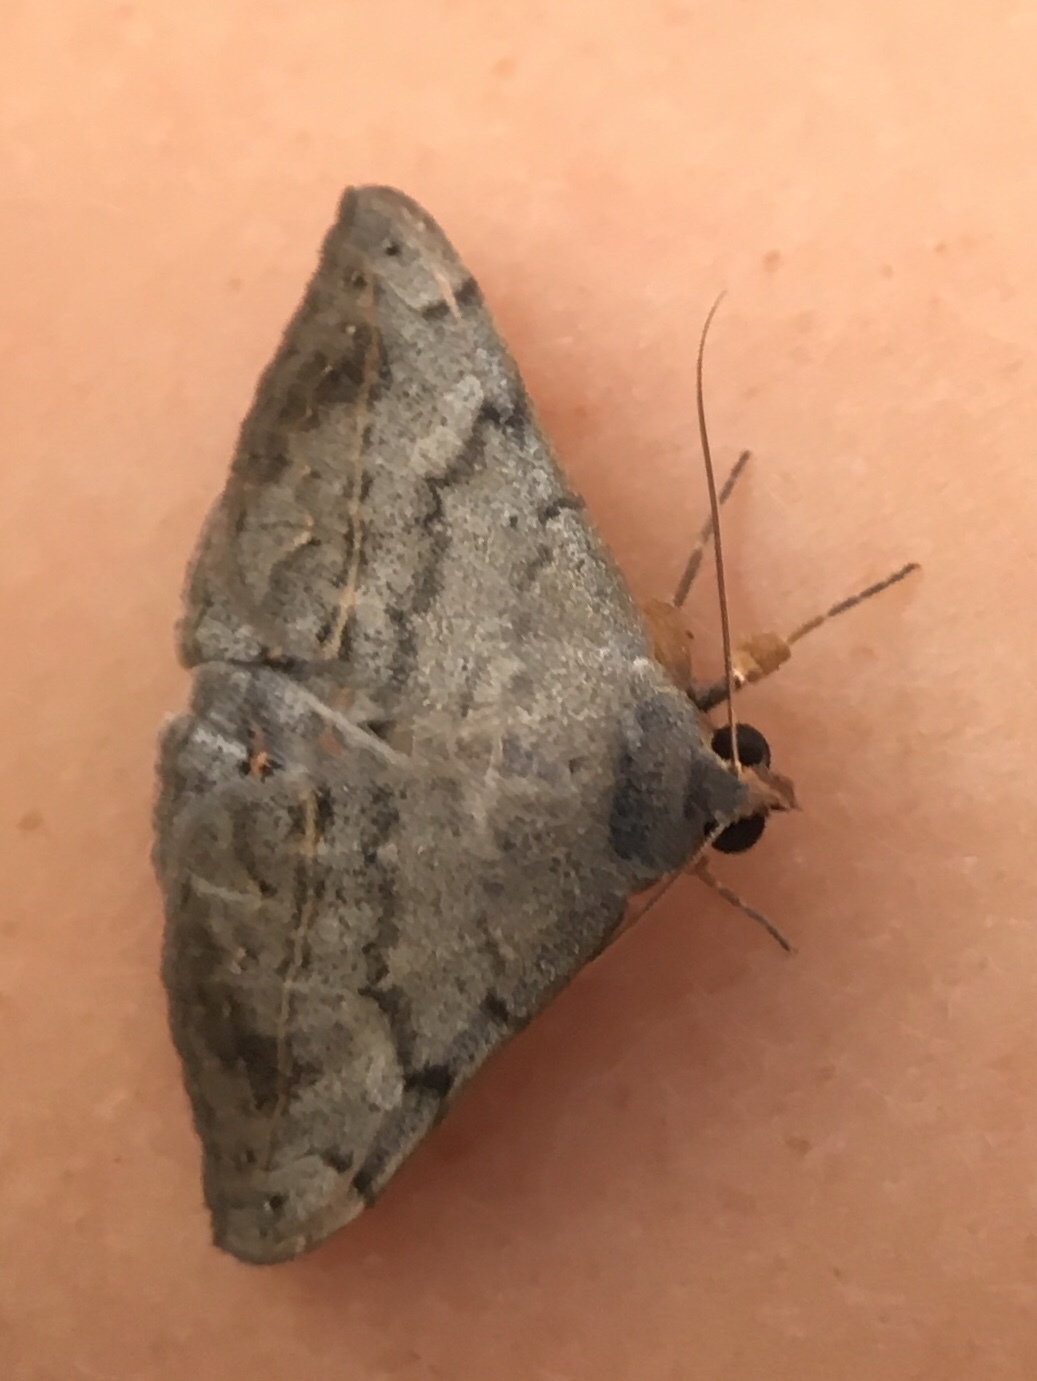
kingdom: Animalia
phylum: Arthropoda
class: Insecta
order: Lepidoptera
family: Erebidae
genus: Anticarsia
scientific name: Anticarsia gemmatalis
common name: Cutworm moth
